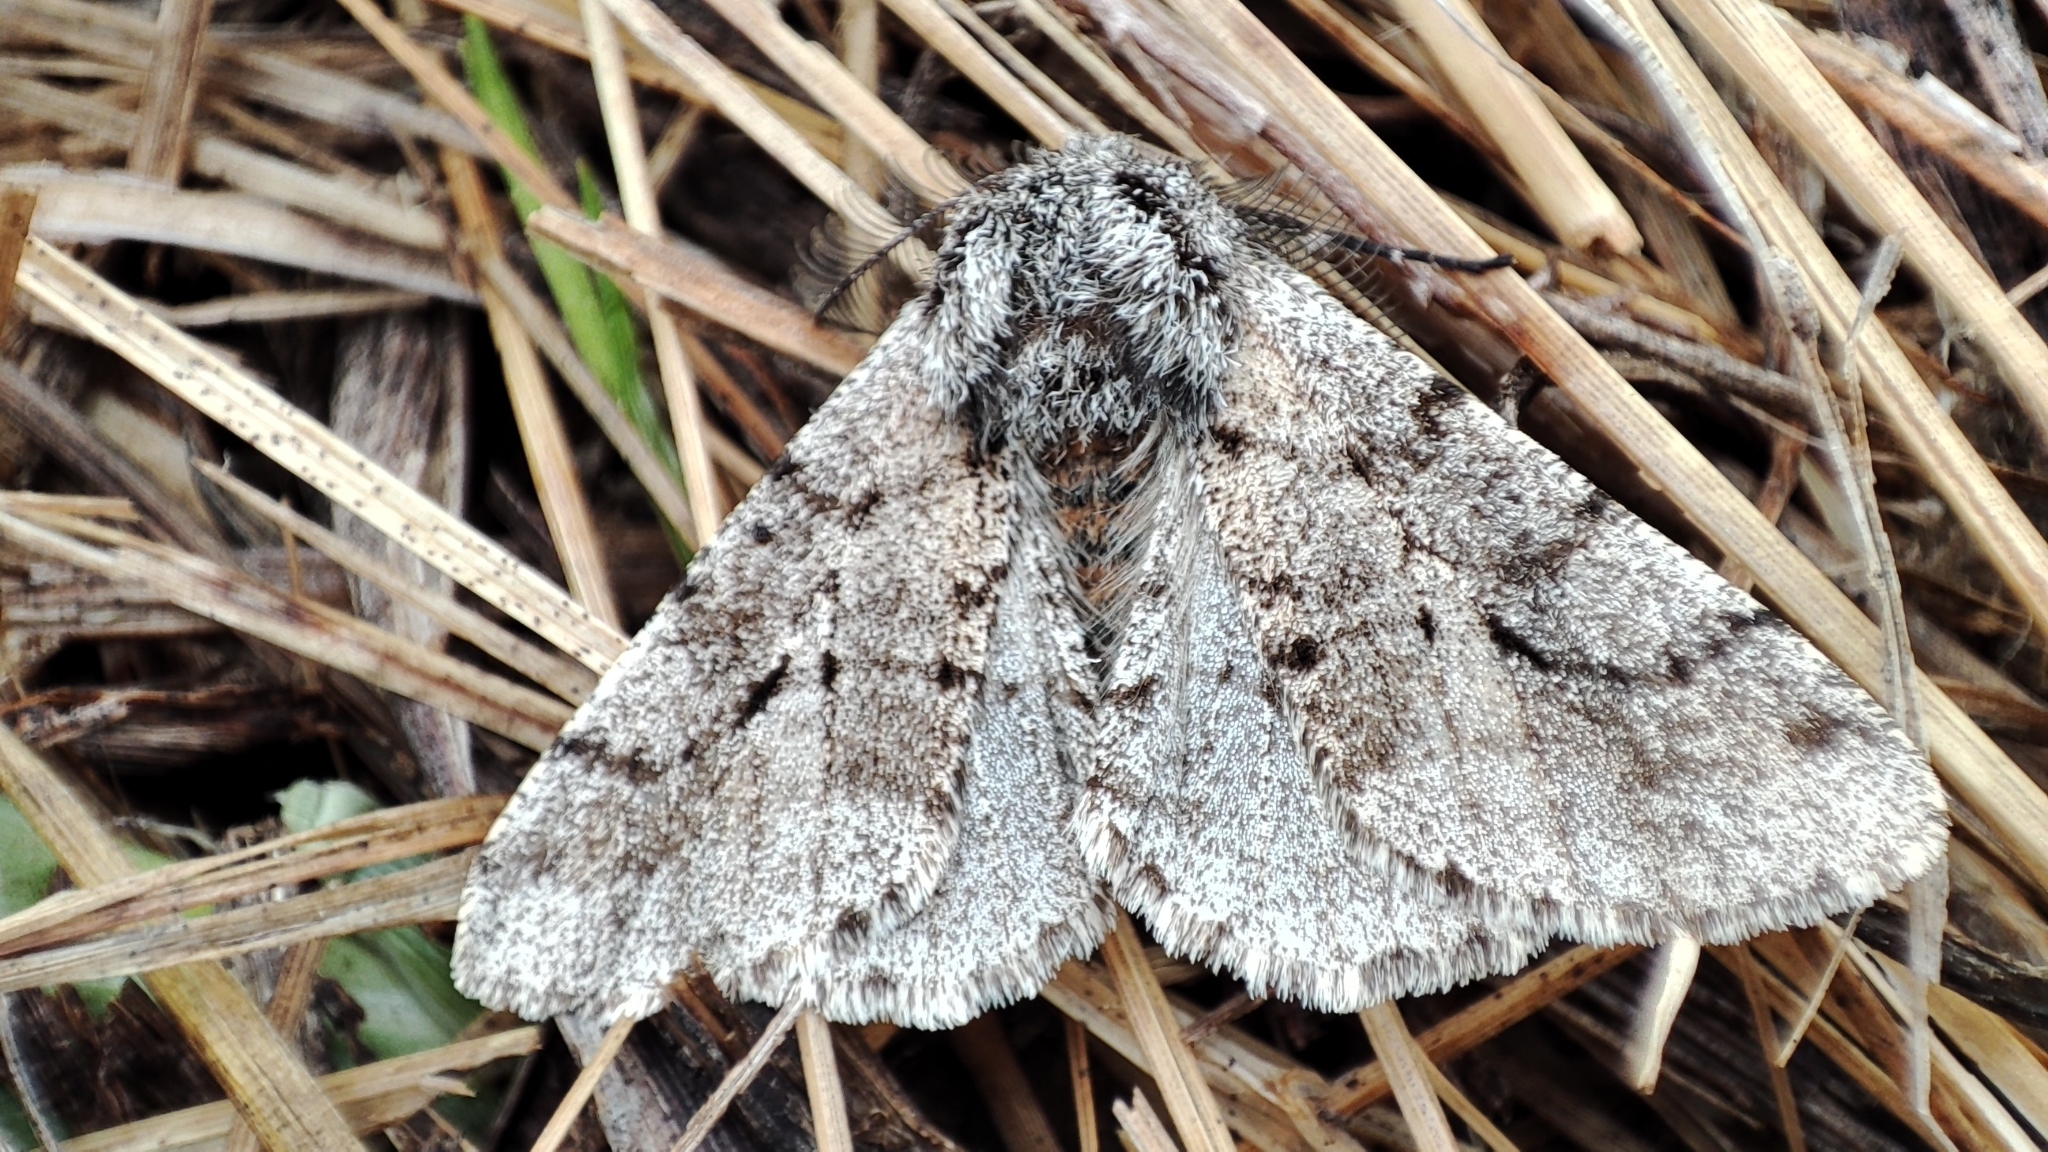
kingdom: Animalia
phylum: Arthropoda
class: Insecta
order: Lepidoptera
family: Geometridae
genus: Lycia
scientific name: Lycia hirtaria
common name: Brindled beauty
